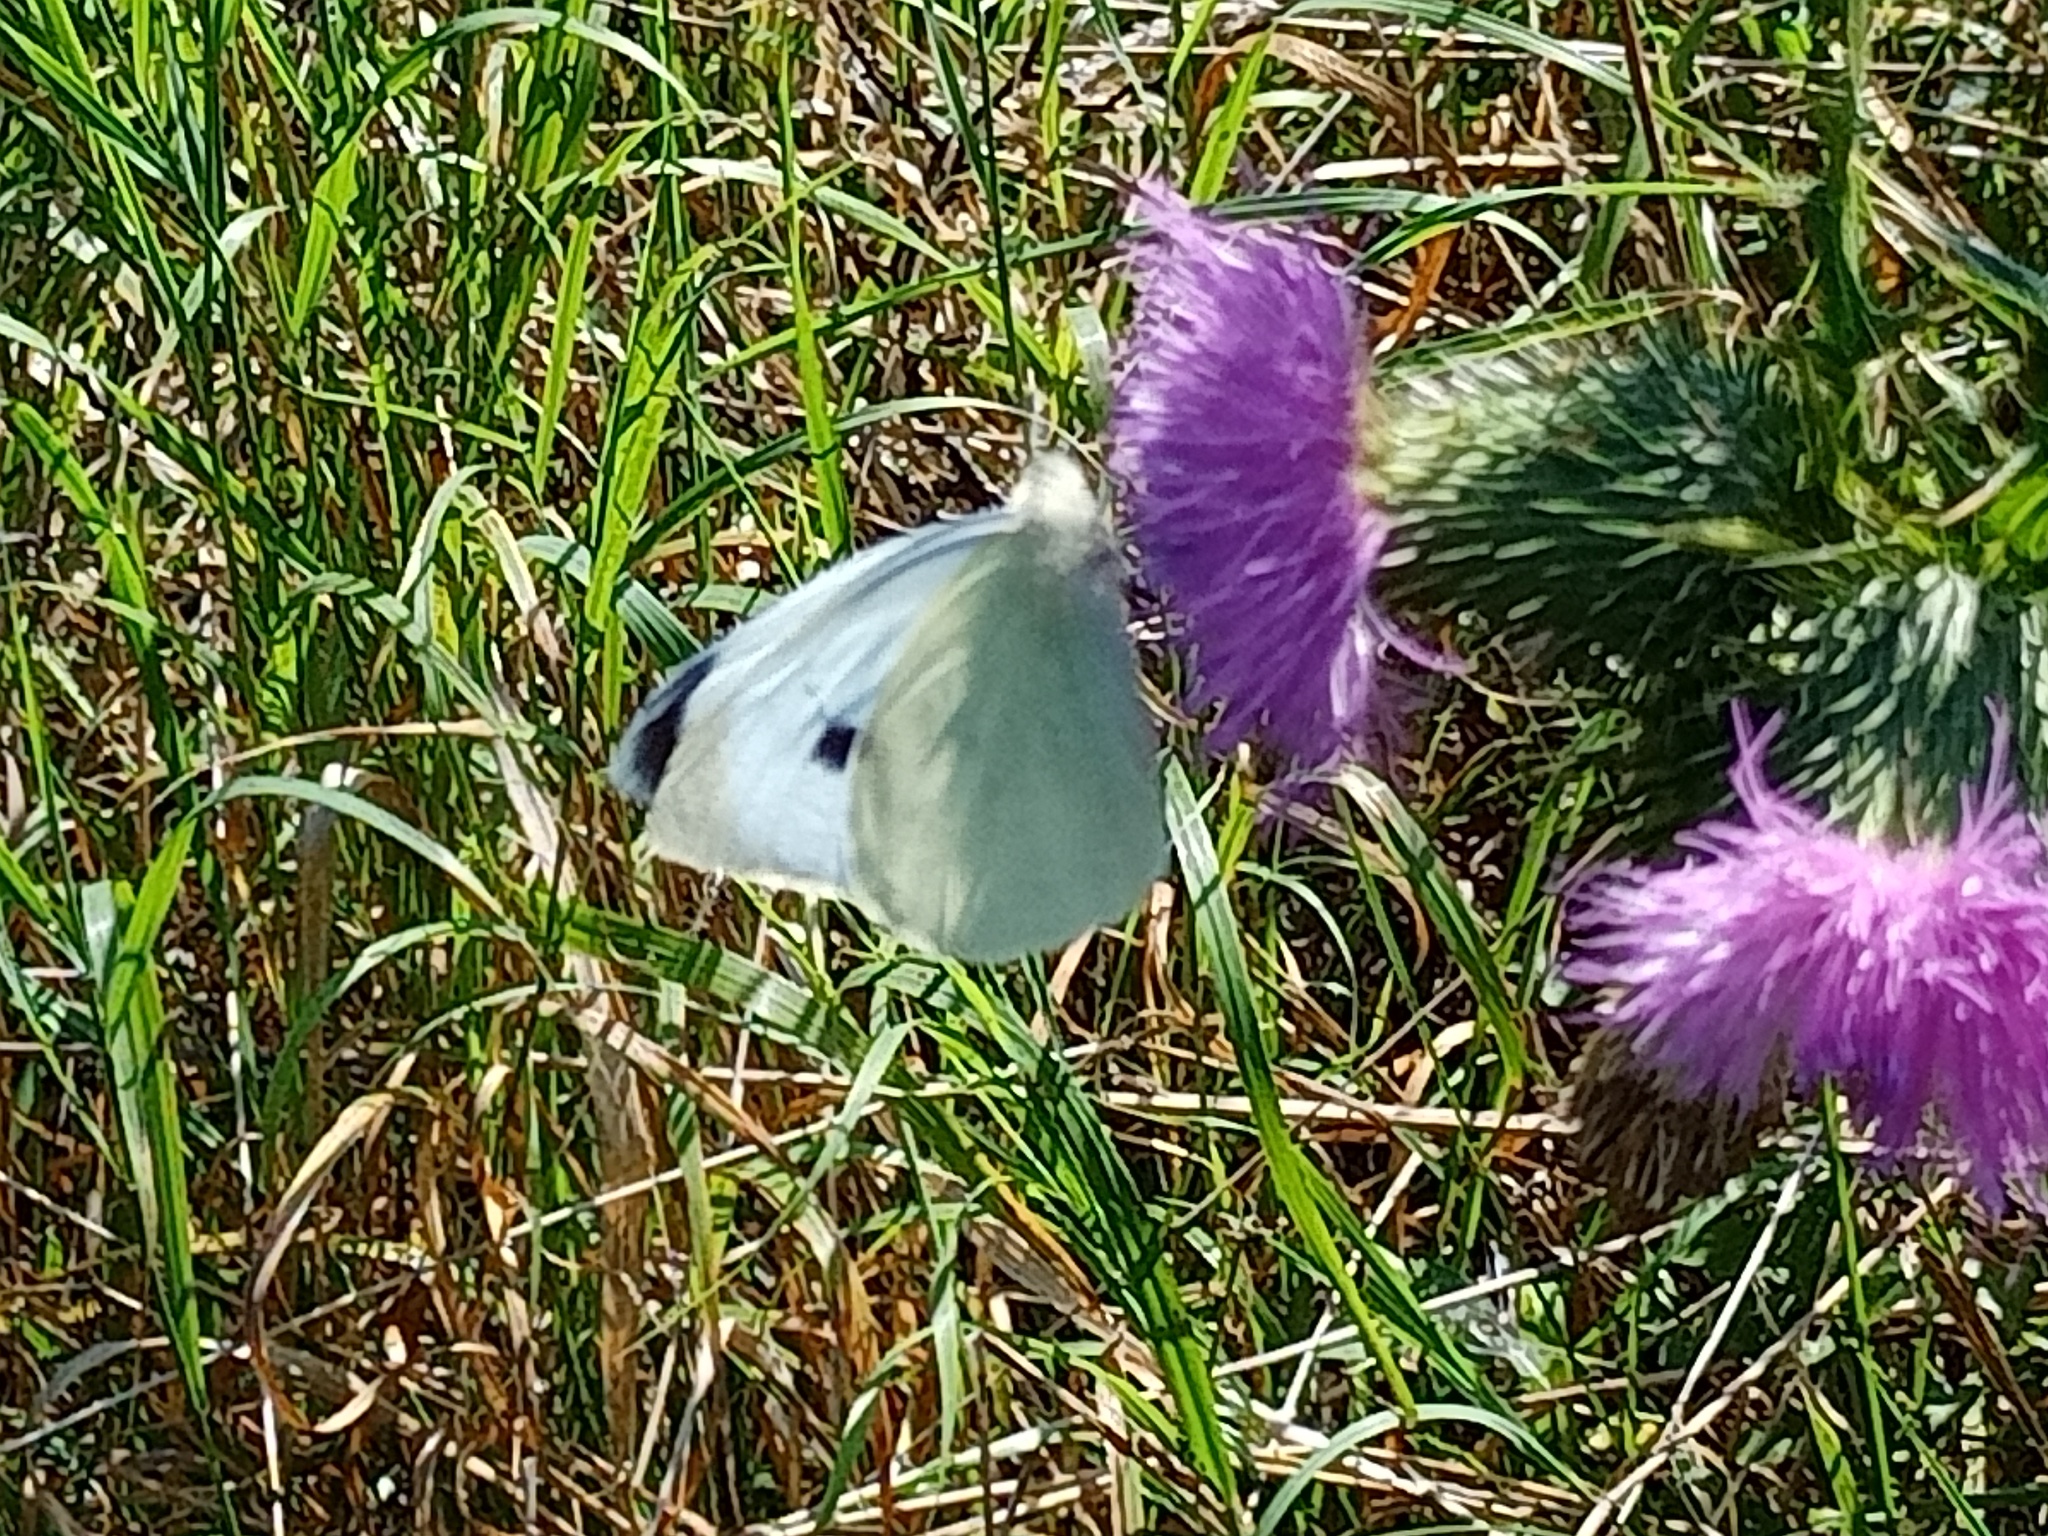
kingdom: Animalia
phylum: Arthropoda
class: Insecta
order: Lepidoptera
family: Pieridae
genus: Pieris
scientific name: Pieris brassicae
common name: Large white
